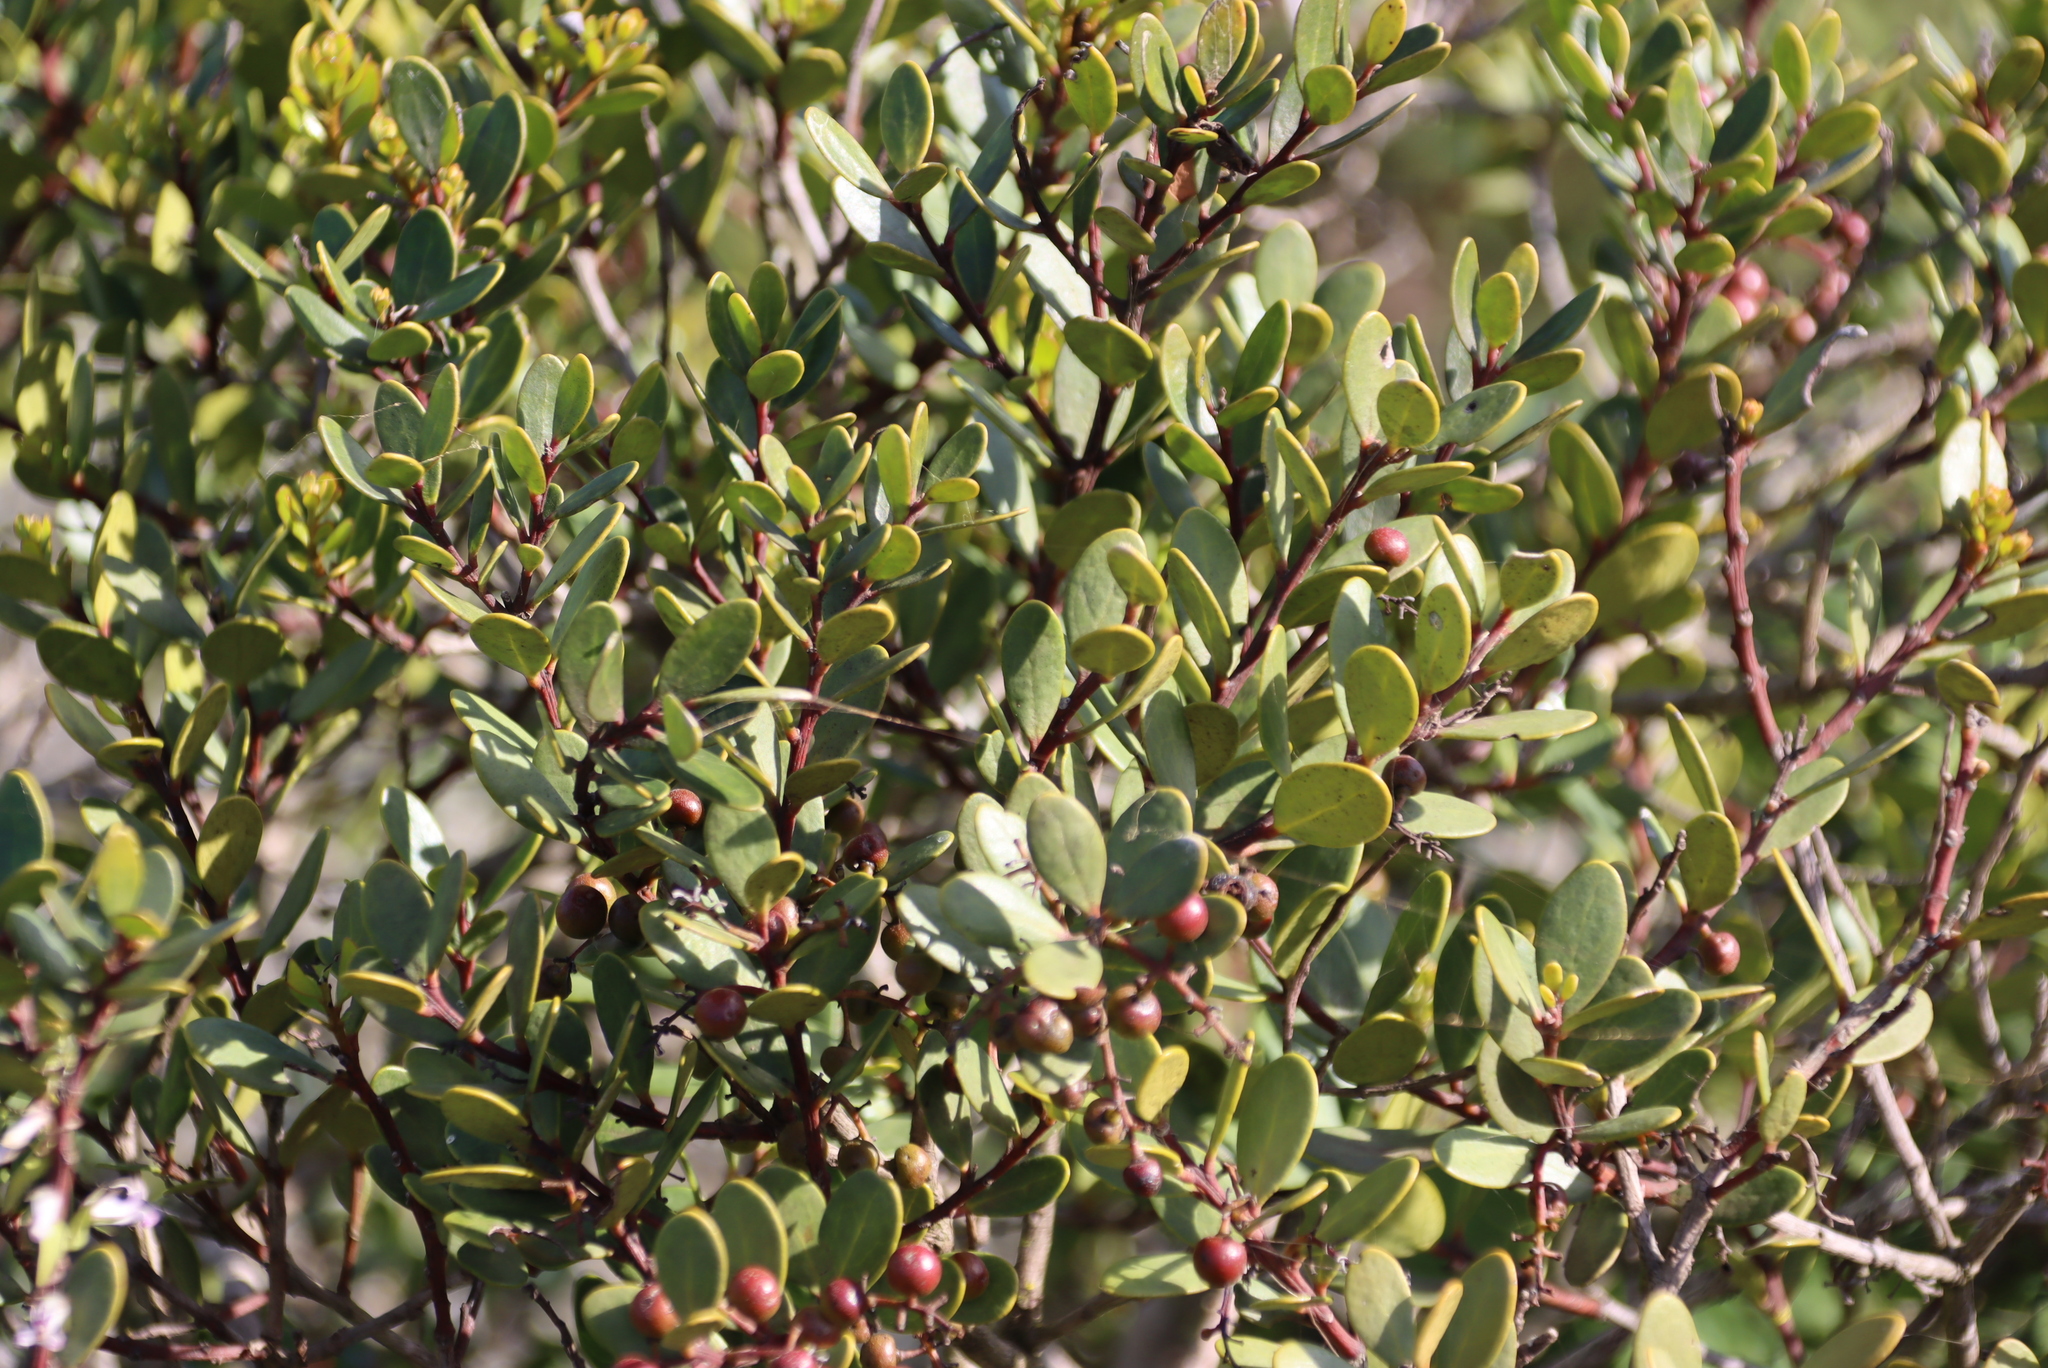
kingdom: Plantae
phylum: Tracheophyta
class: Magnoliopsida
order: Ericales
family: Ebenaceae
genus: Euclea
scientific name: Euclea racemosa
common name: Dune guarri
